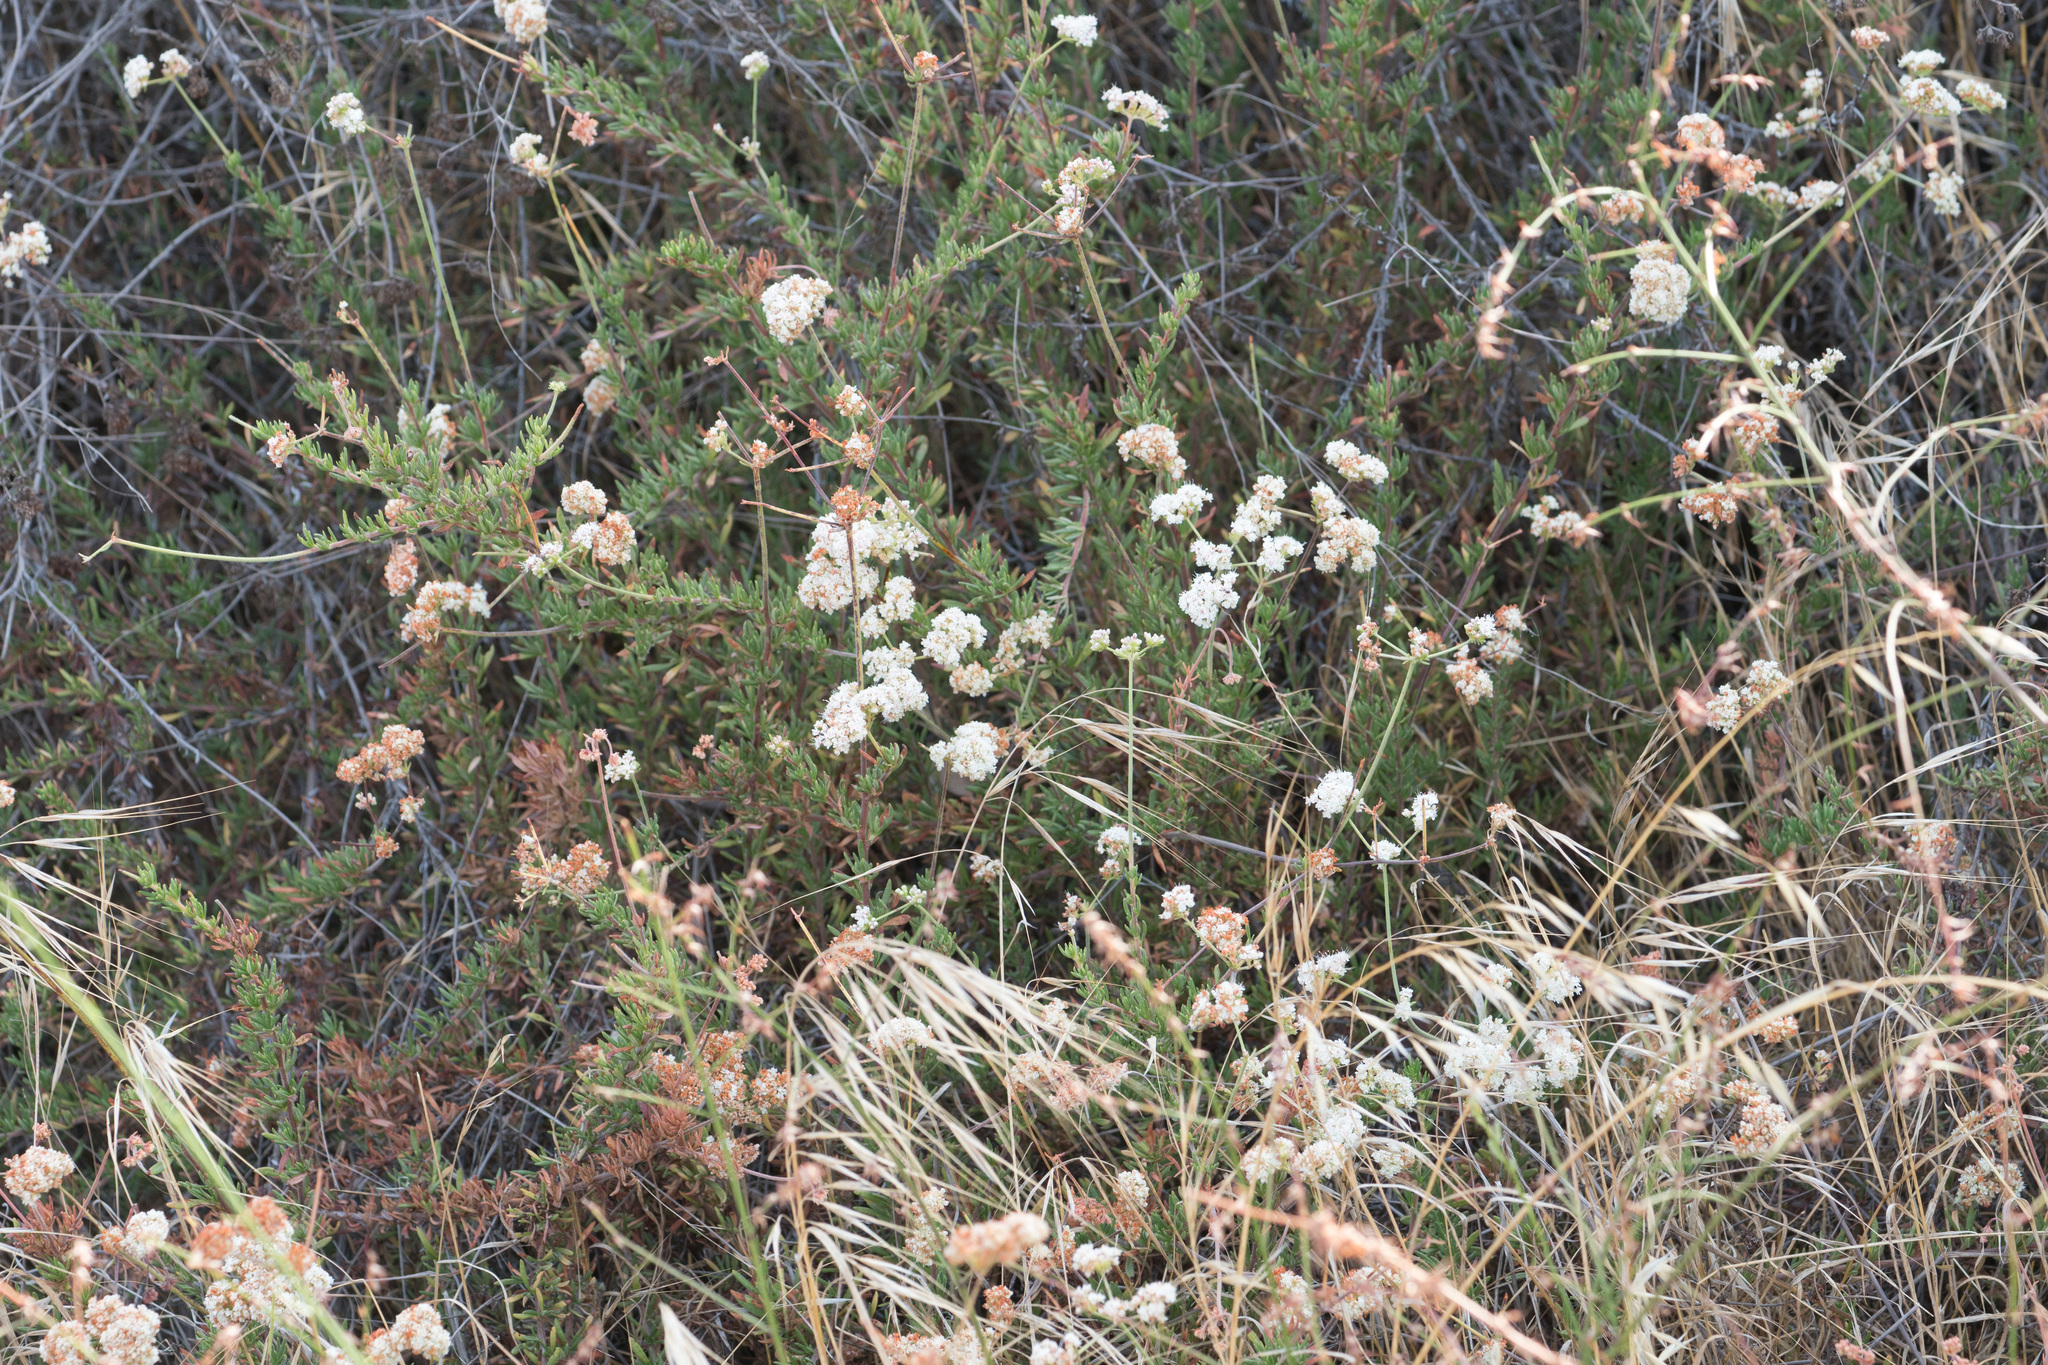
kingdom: Plantae
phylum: Tracheophyta
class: Magnoliopsida
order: Caryophyllales
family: Polygonaceae
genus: Eriogonum
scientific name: Eriogonum fasciculatum
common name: California wild buckwheat
